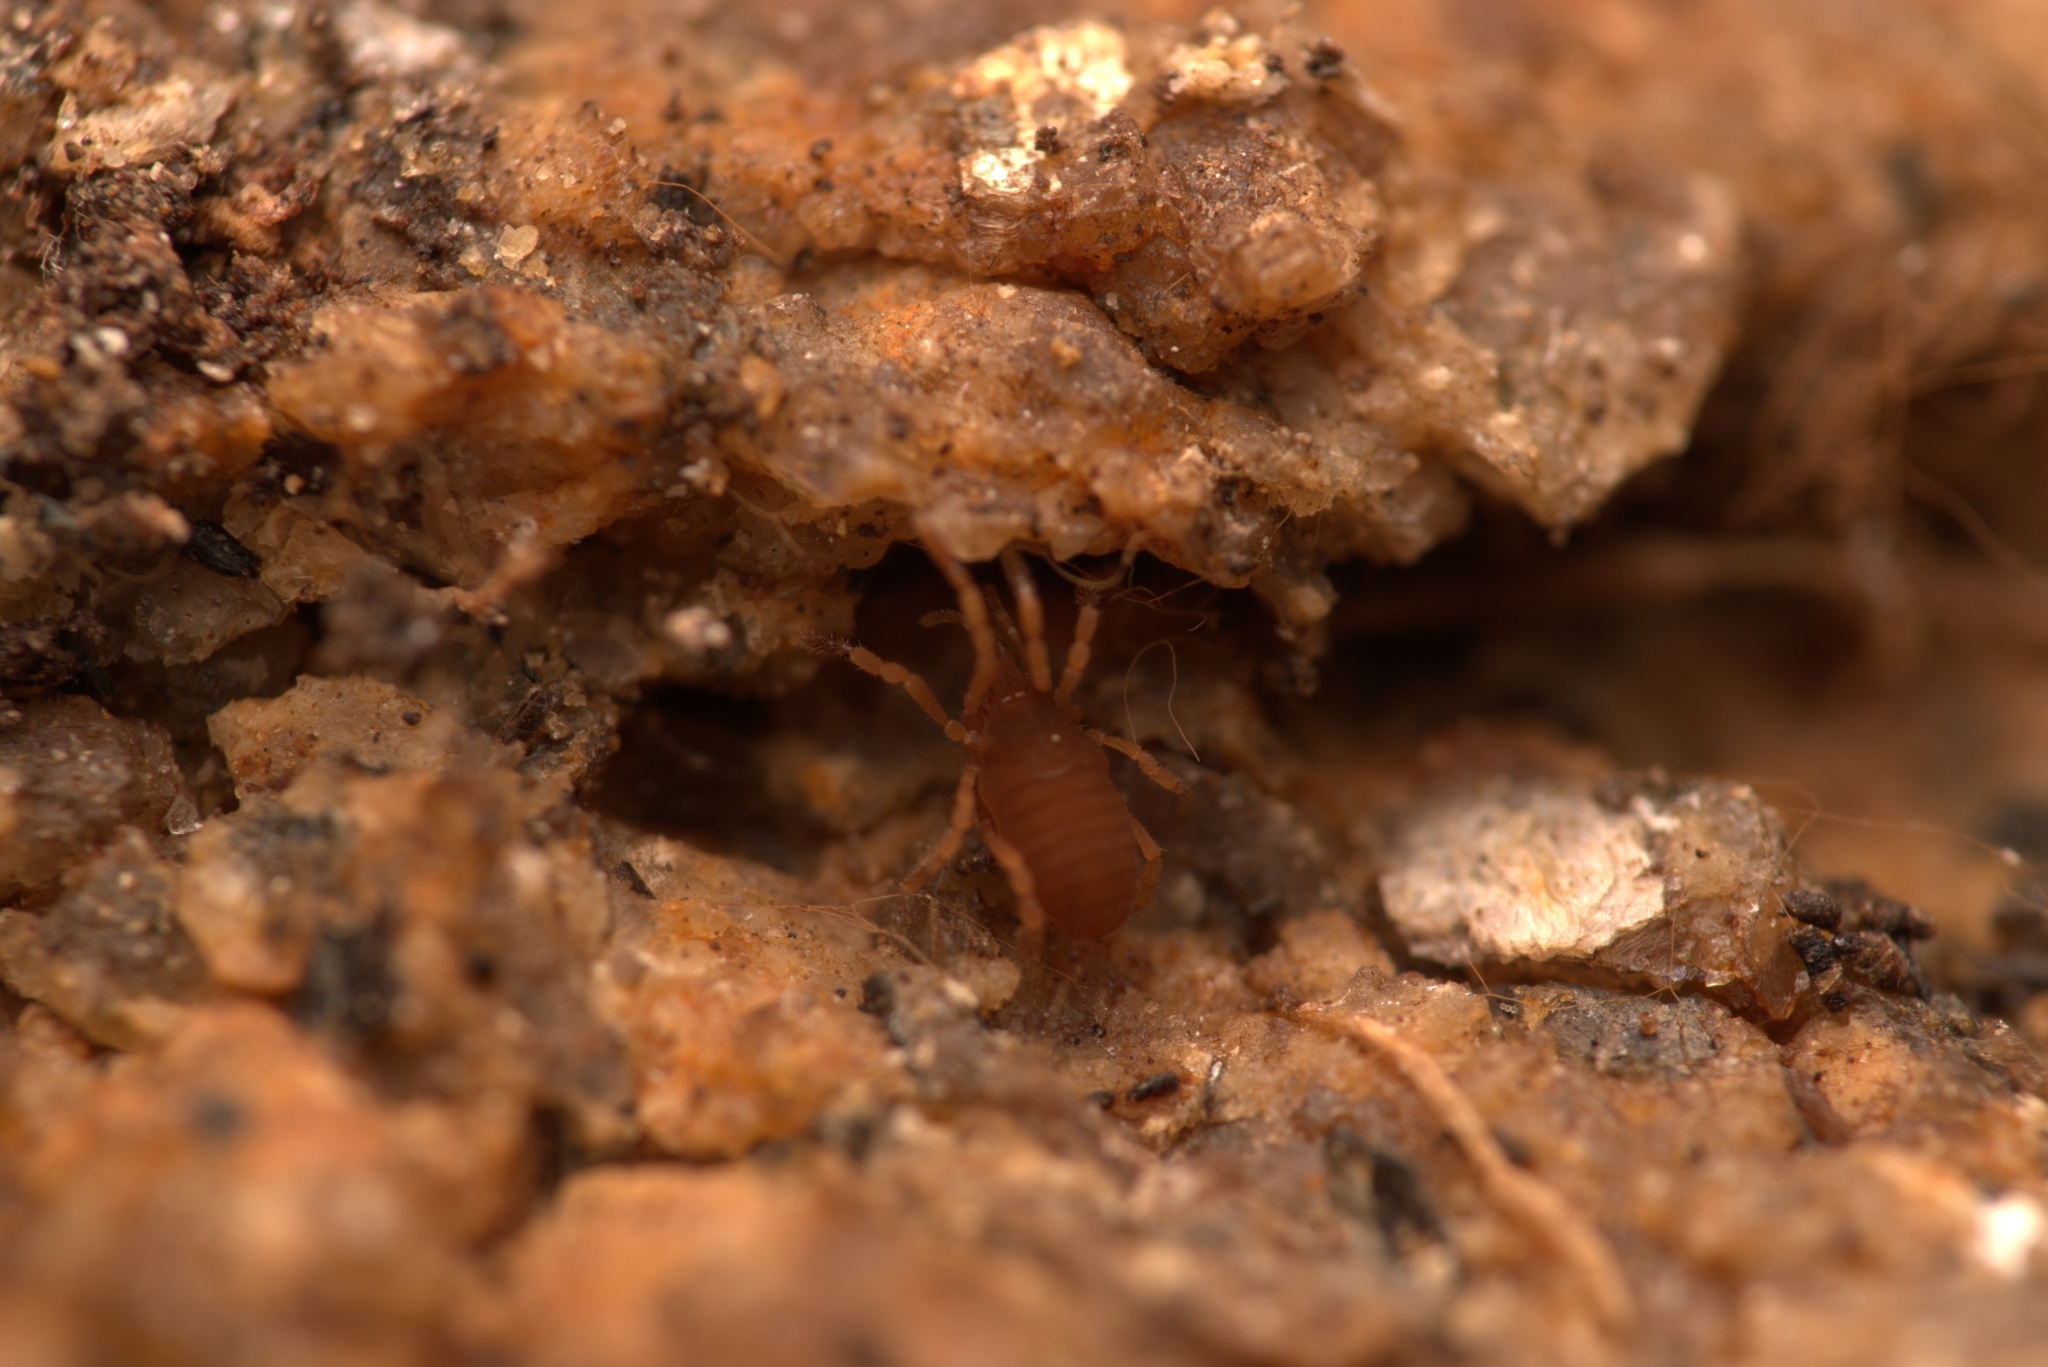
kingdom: Animalia
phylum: Arthropoda
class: Arachnida
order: Opiliones
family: Sironidae
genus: Siro
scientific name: Siro rubens
